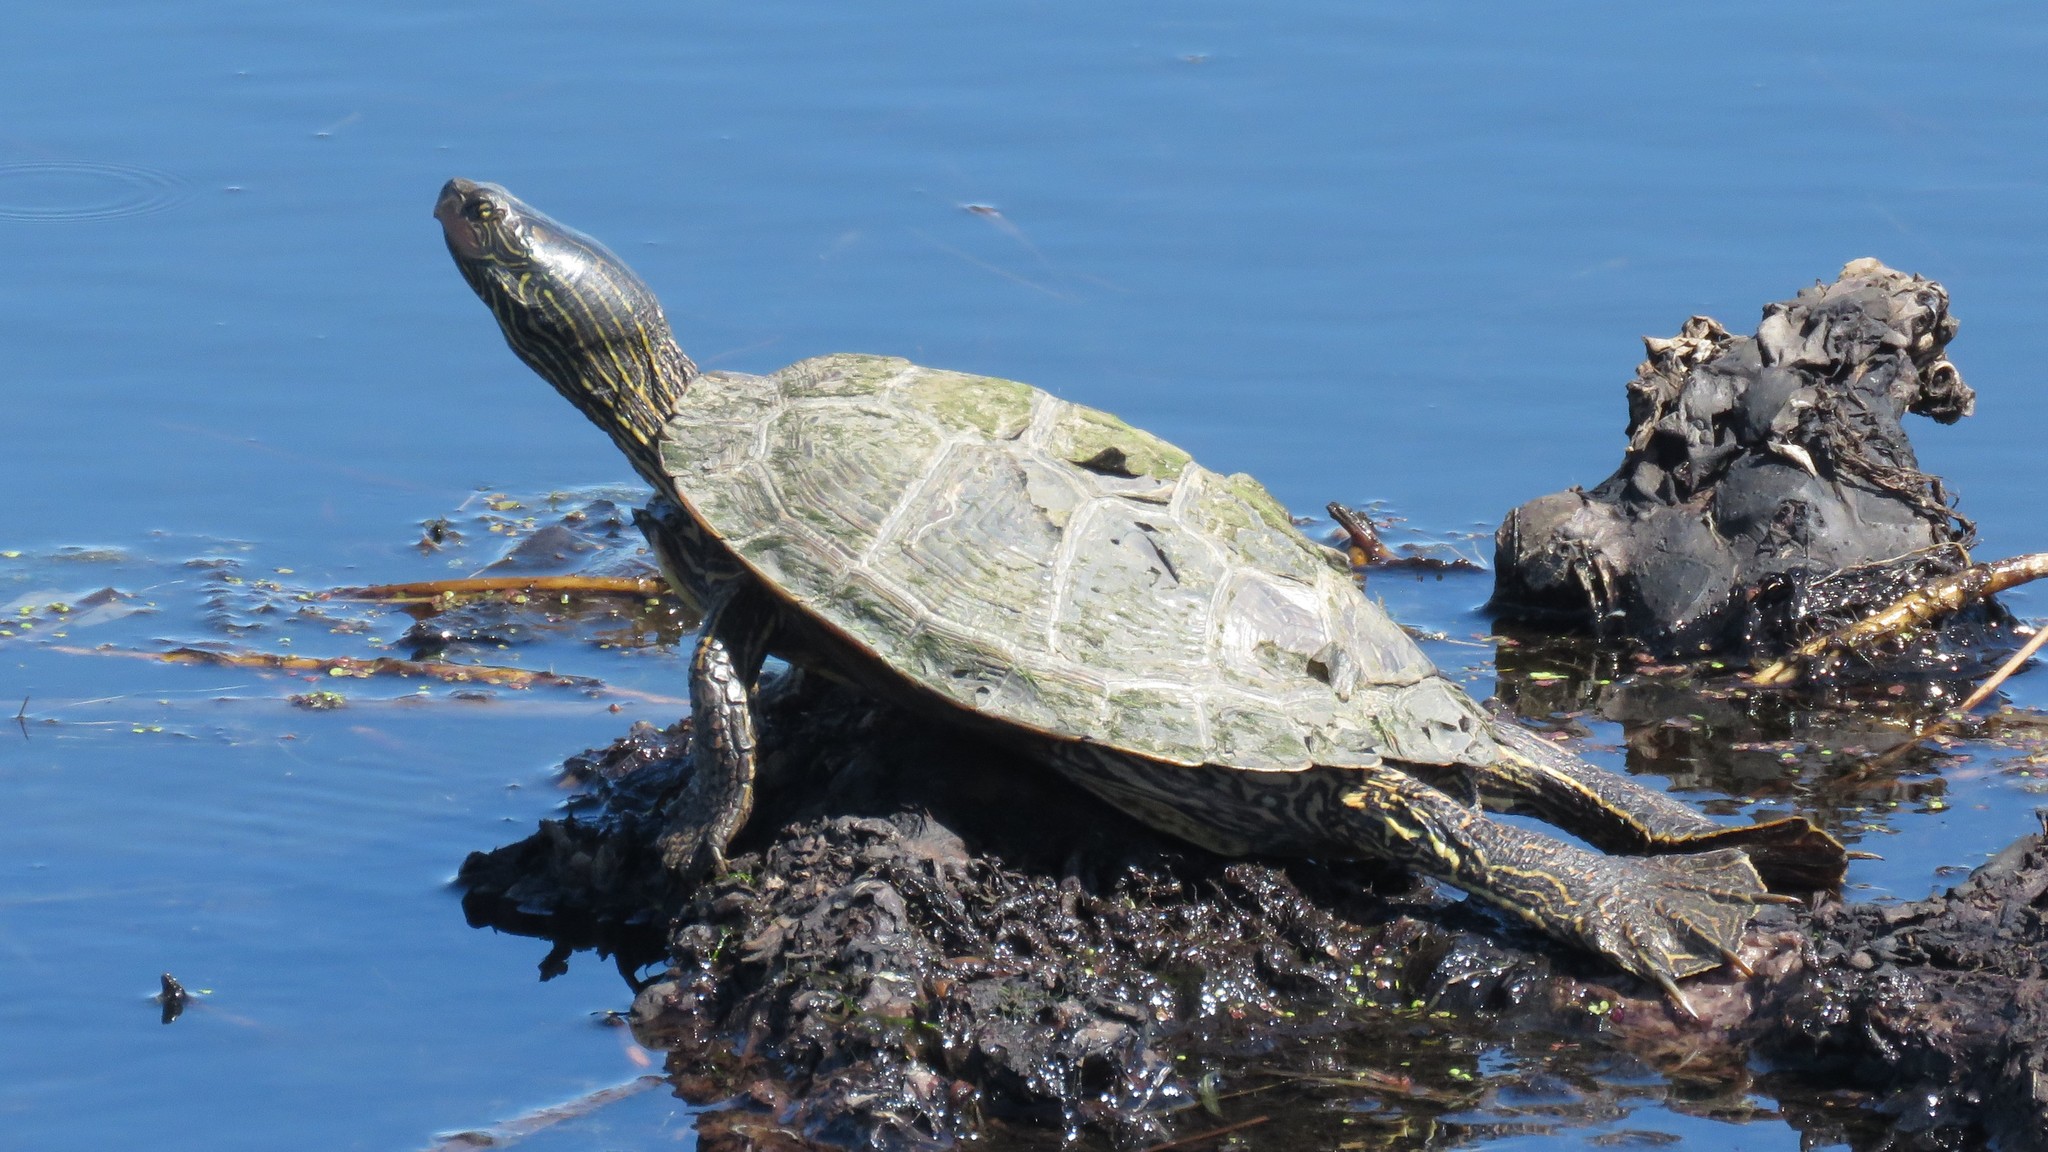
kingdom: Animalia
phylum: Chordata
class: Testudines
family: Emydidae
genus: Graptemys
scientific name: Graptemys geographica
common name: Common map turtle
